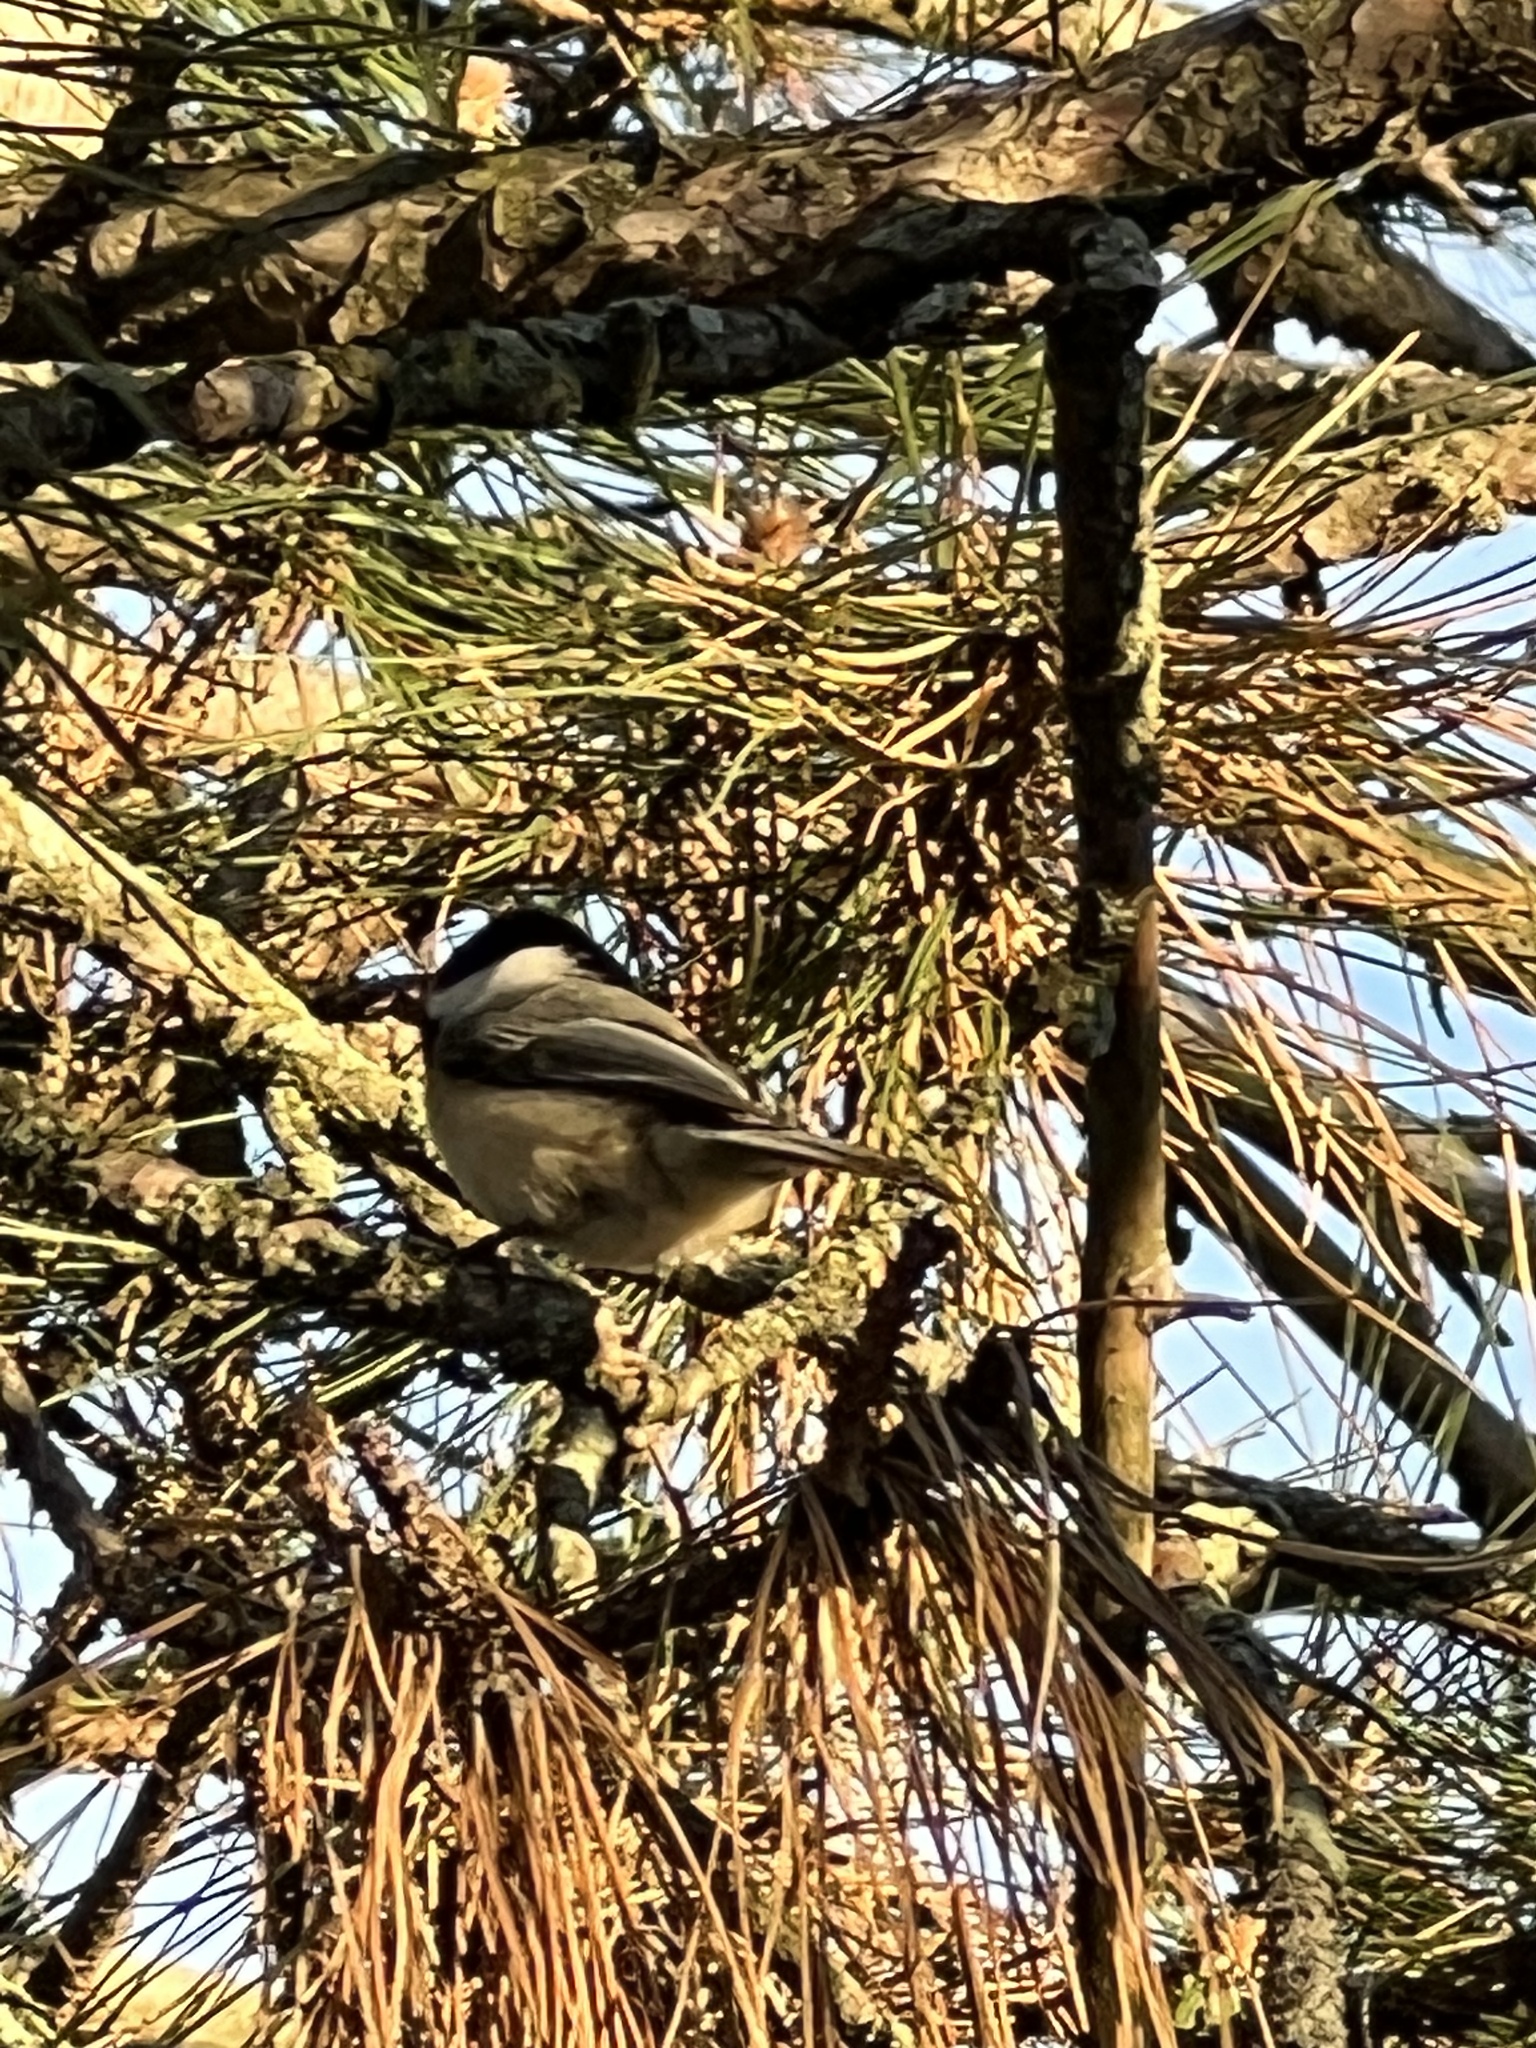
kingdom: Animalia
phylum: Chordata
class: Aves
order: Passeriformes
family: Paridae
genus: Poecile
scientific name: Poecile atricapillus
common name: Black-capped chickadee
